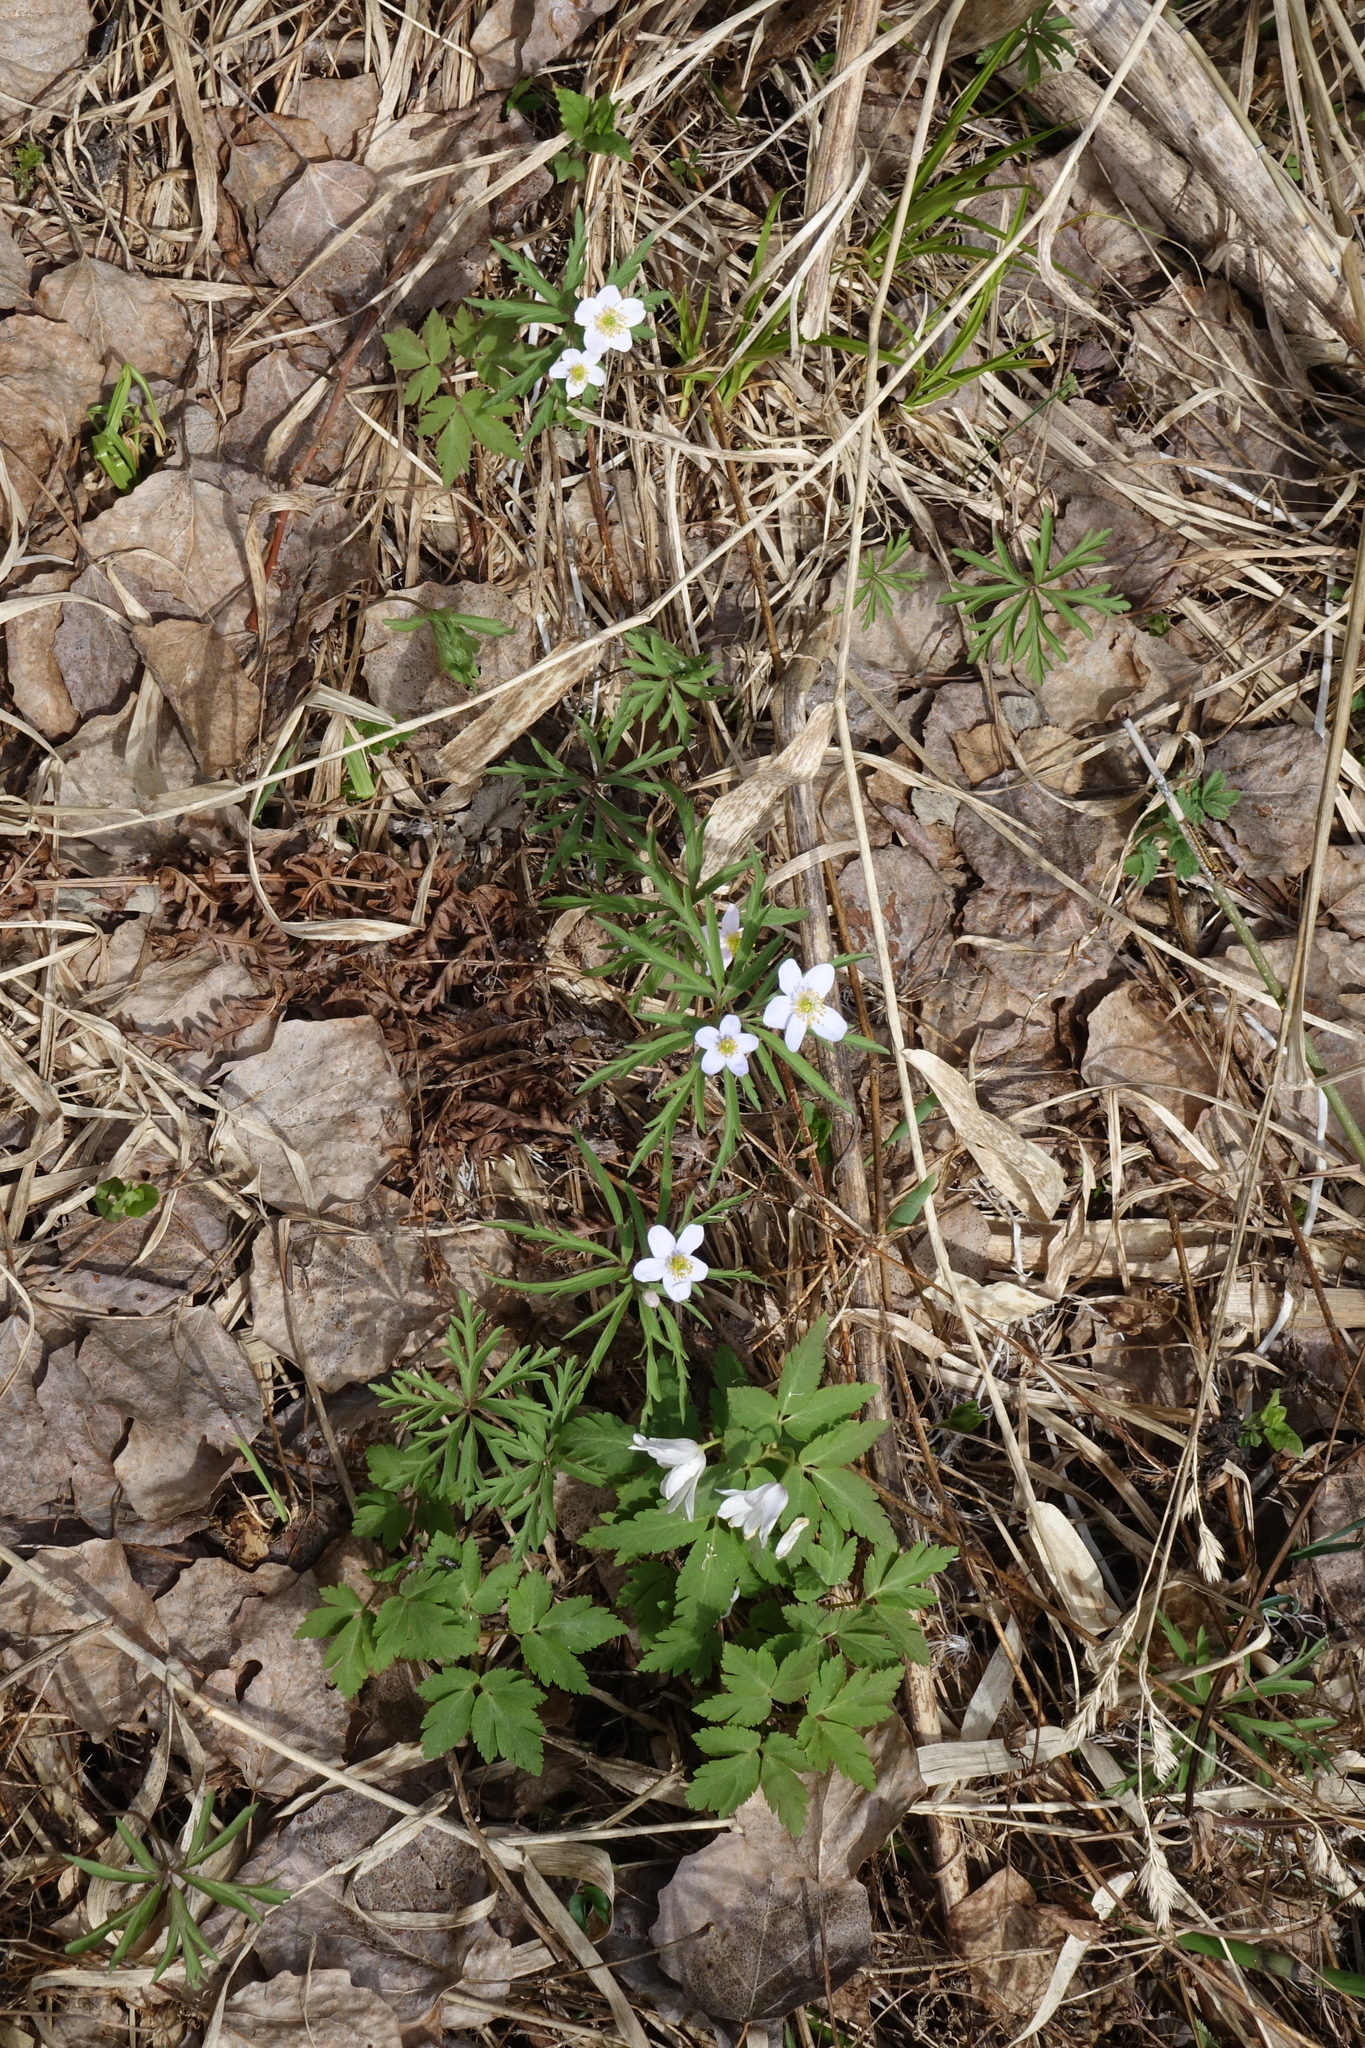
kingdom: Plantae
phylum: Tracheophyta
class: Magnoliopsida
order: Ranunculales
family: Ranunculaceae
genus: Anemone
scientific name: Anemone caerulea
